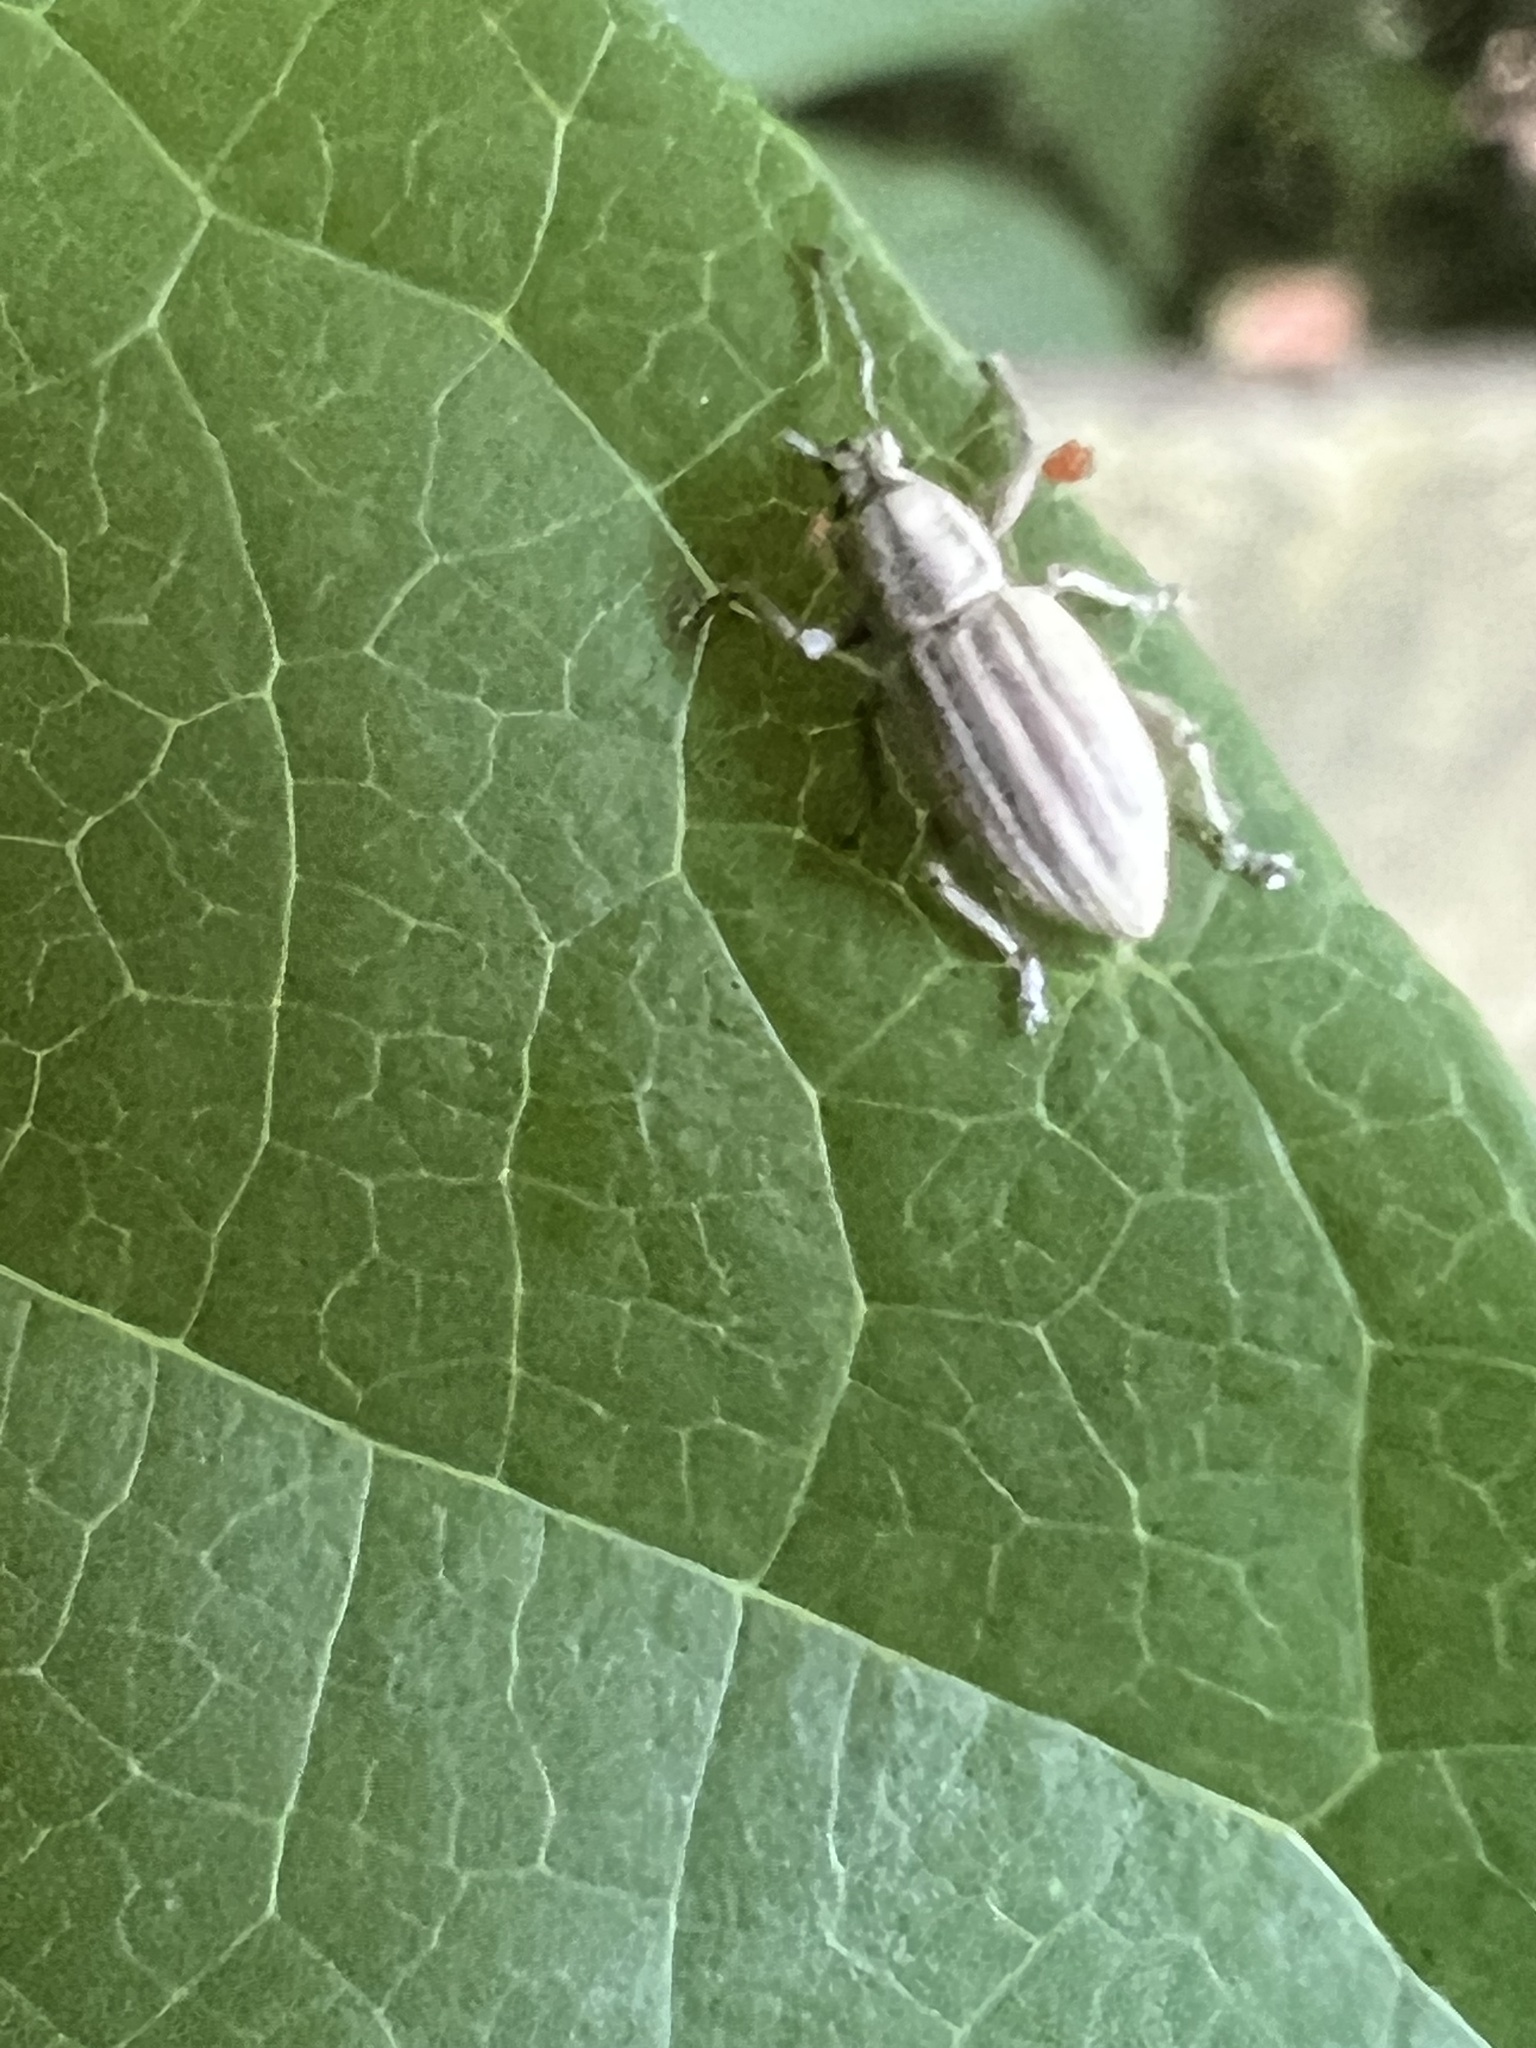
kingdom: Animalia
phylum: Arthropoda
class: Insecta
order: Coleoptera
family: Curculionidae
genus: Aphrastus
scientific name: Aphrastus taeniatus
